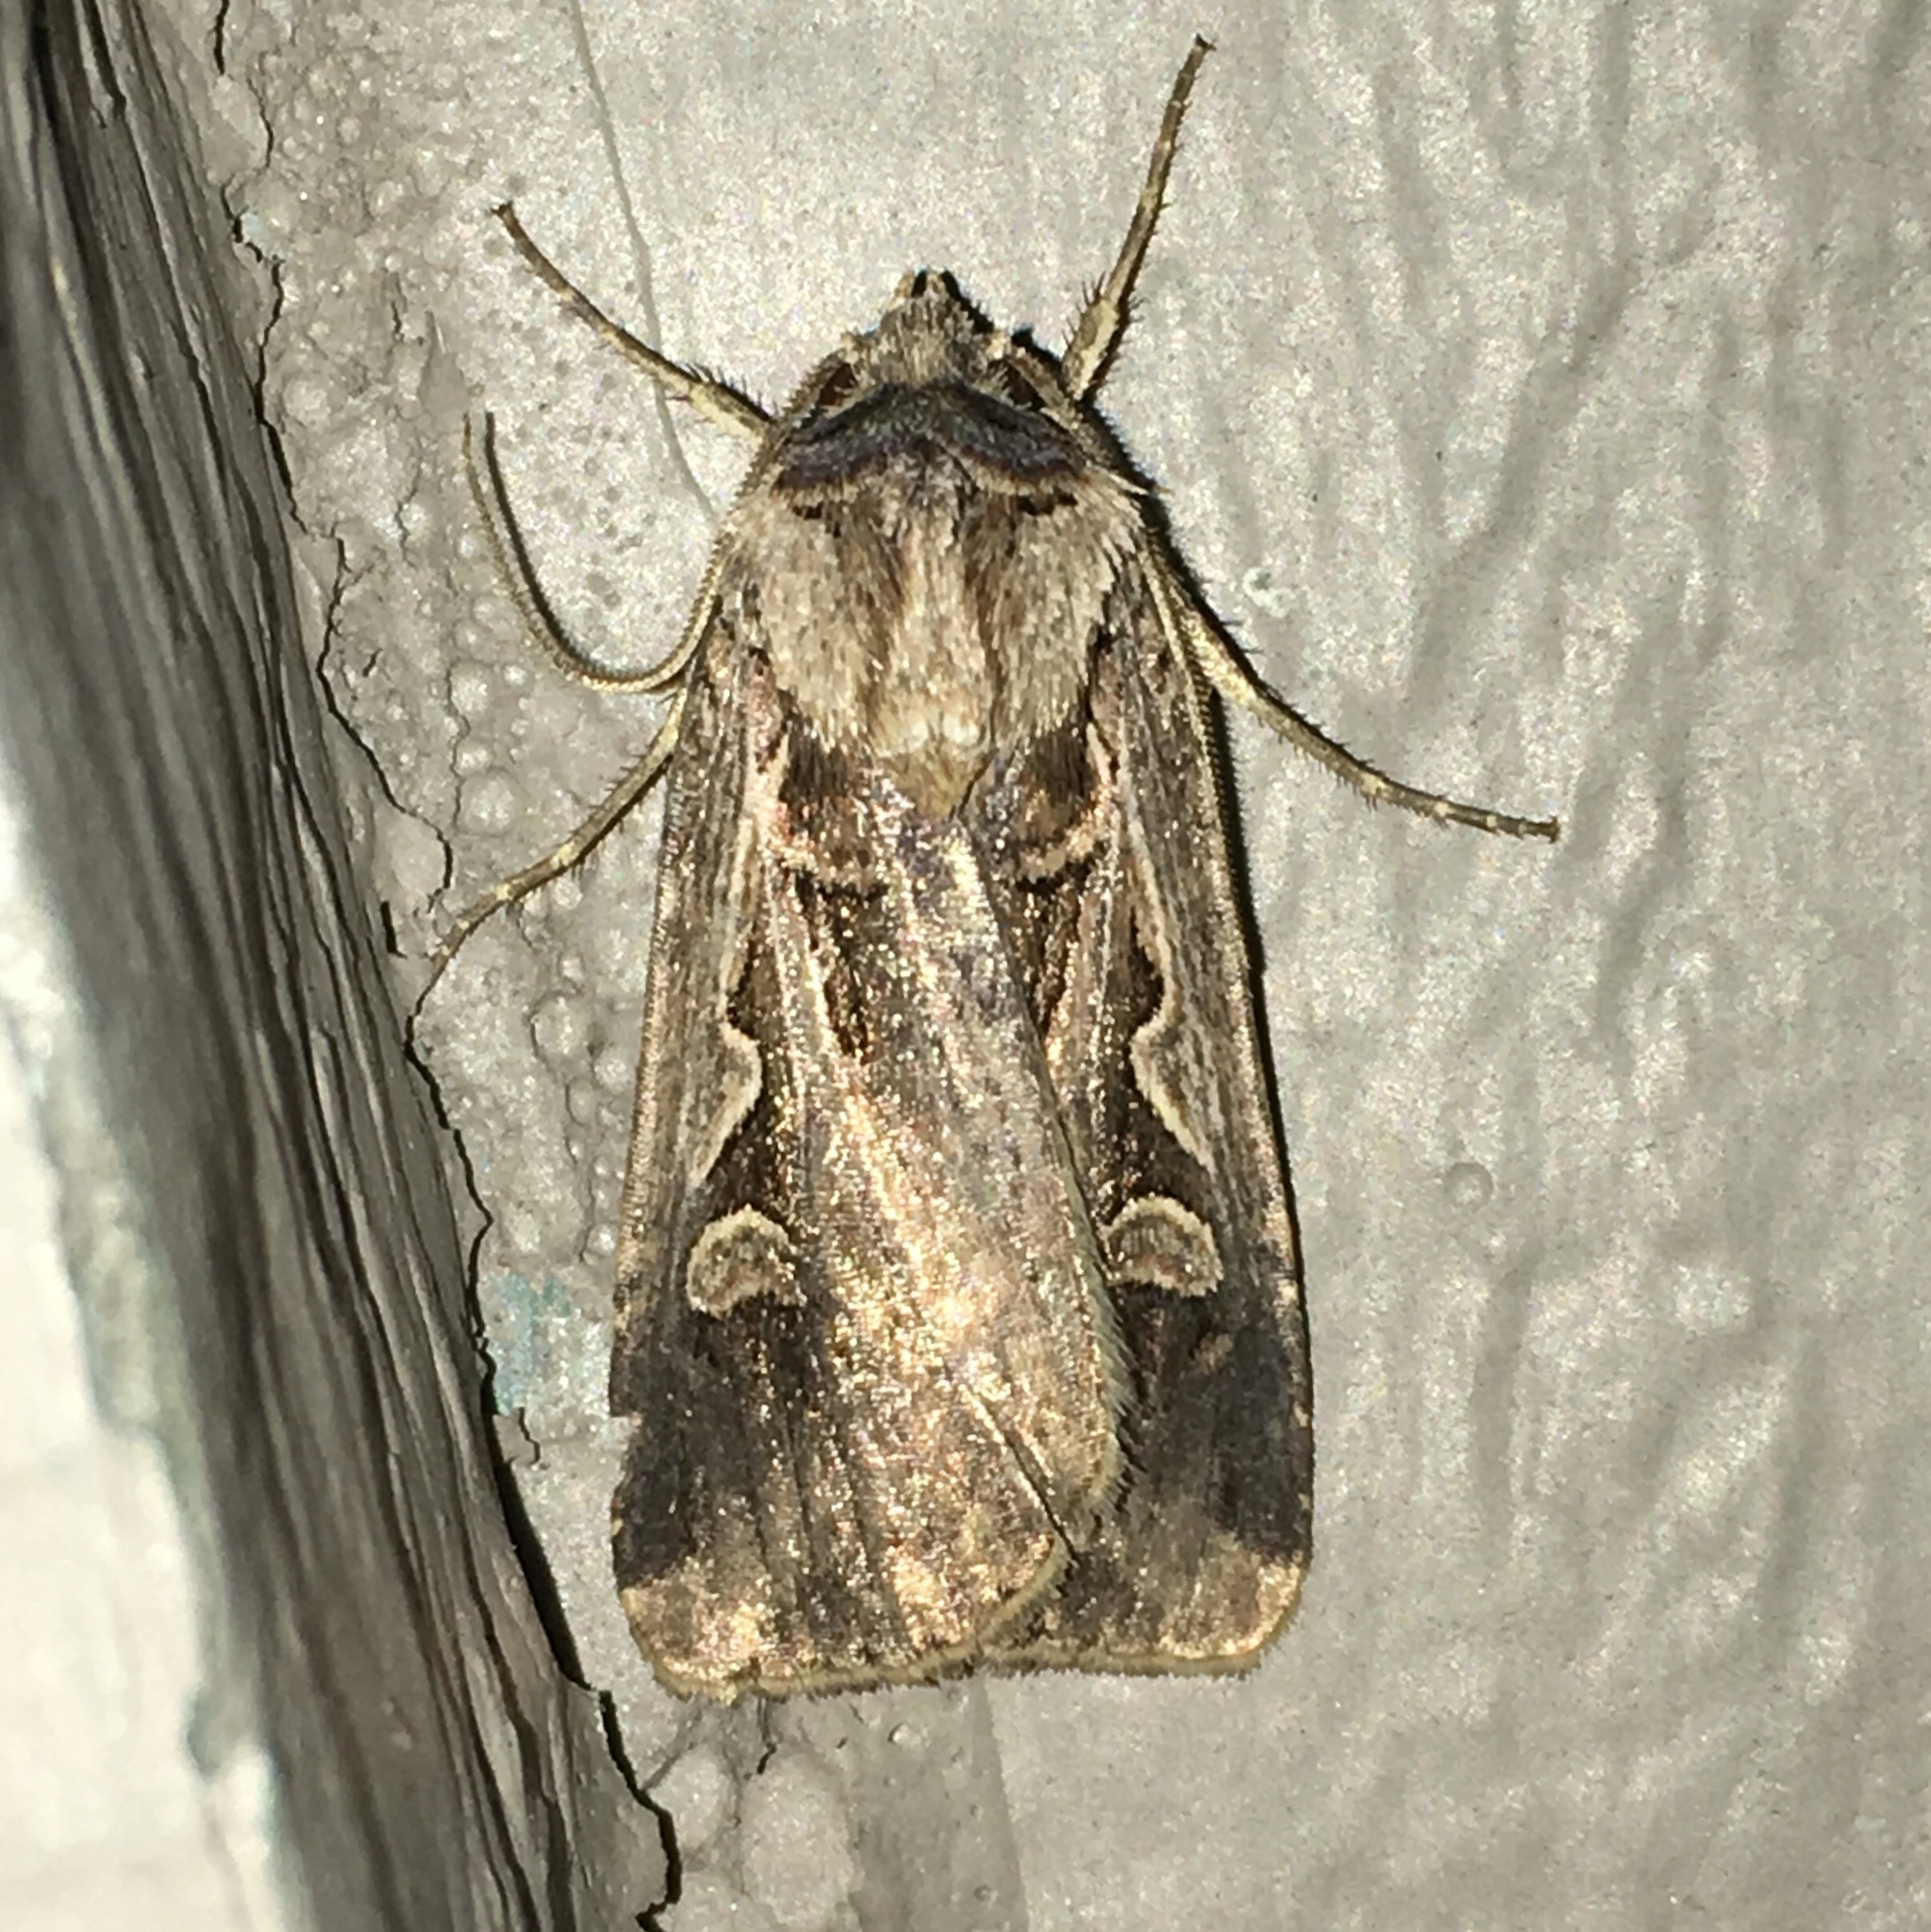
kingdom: Animalia
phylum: Arthropoda
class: Insecta
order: Lepidoptera
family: Noctuidae
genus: Feltia
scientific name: Feltia
